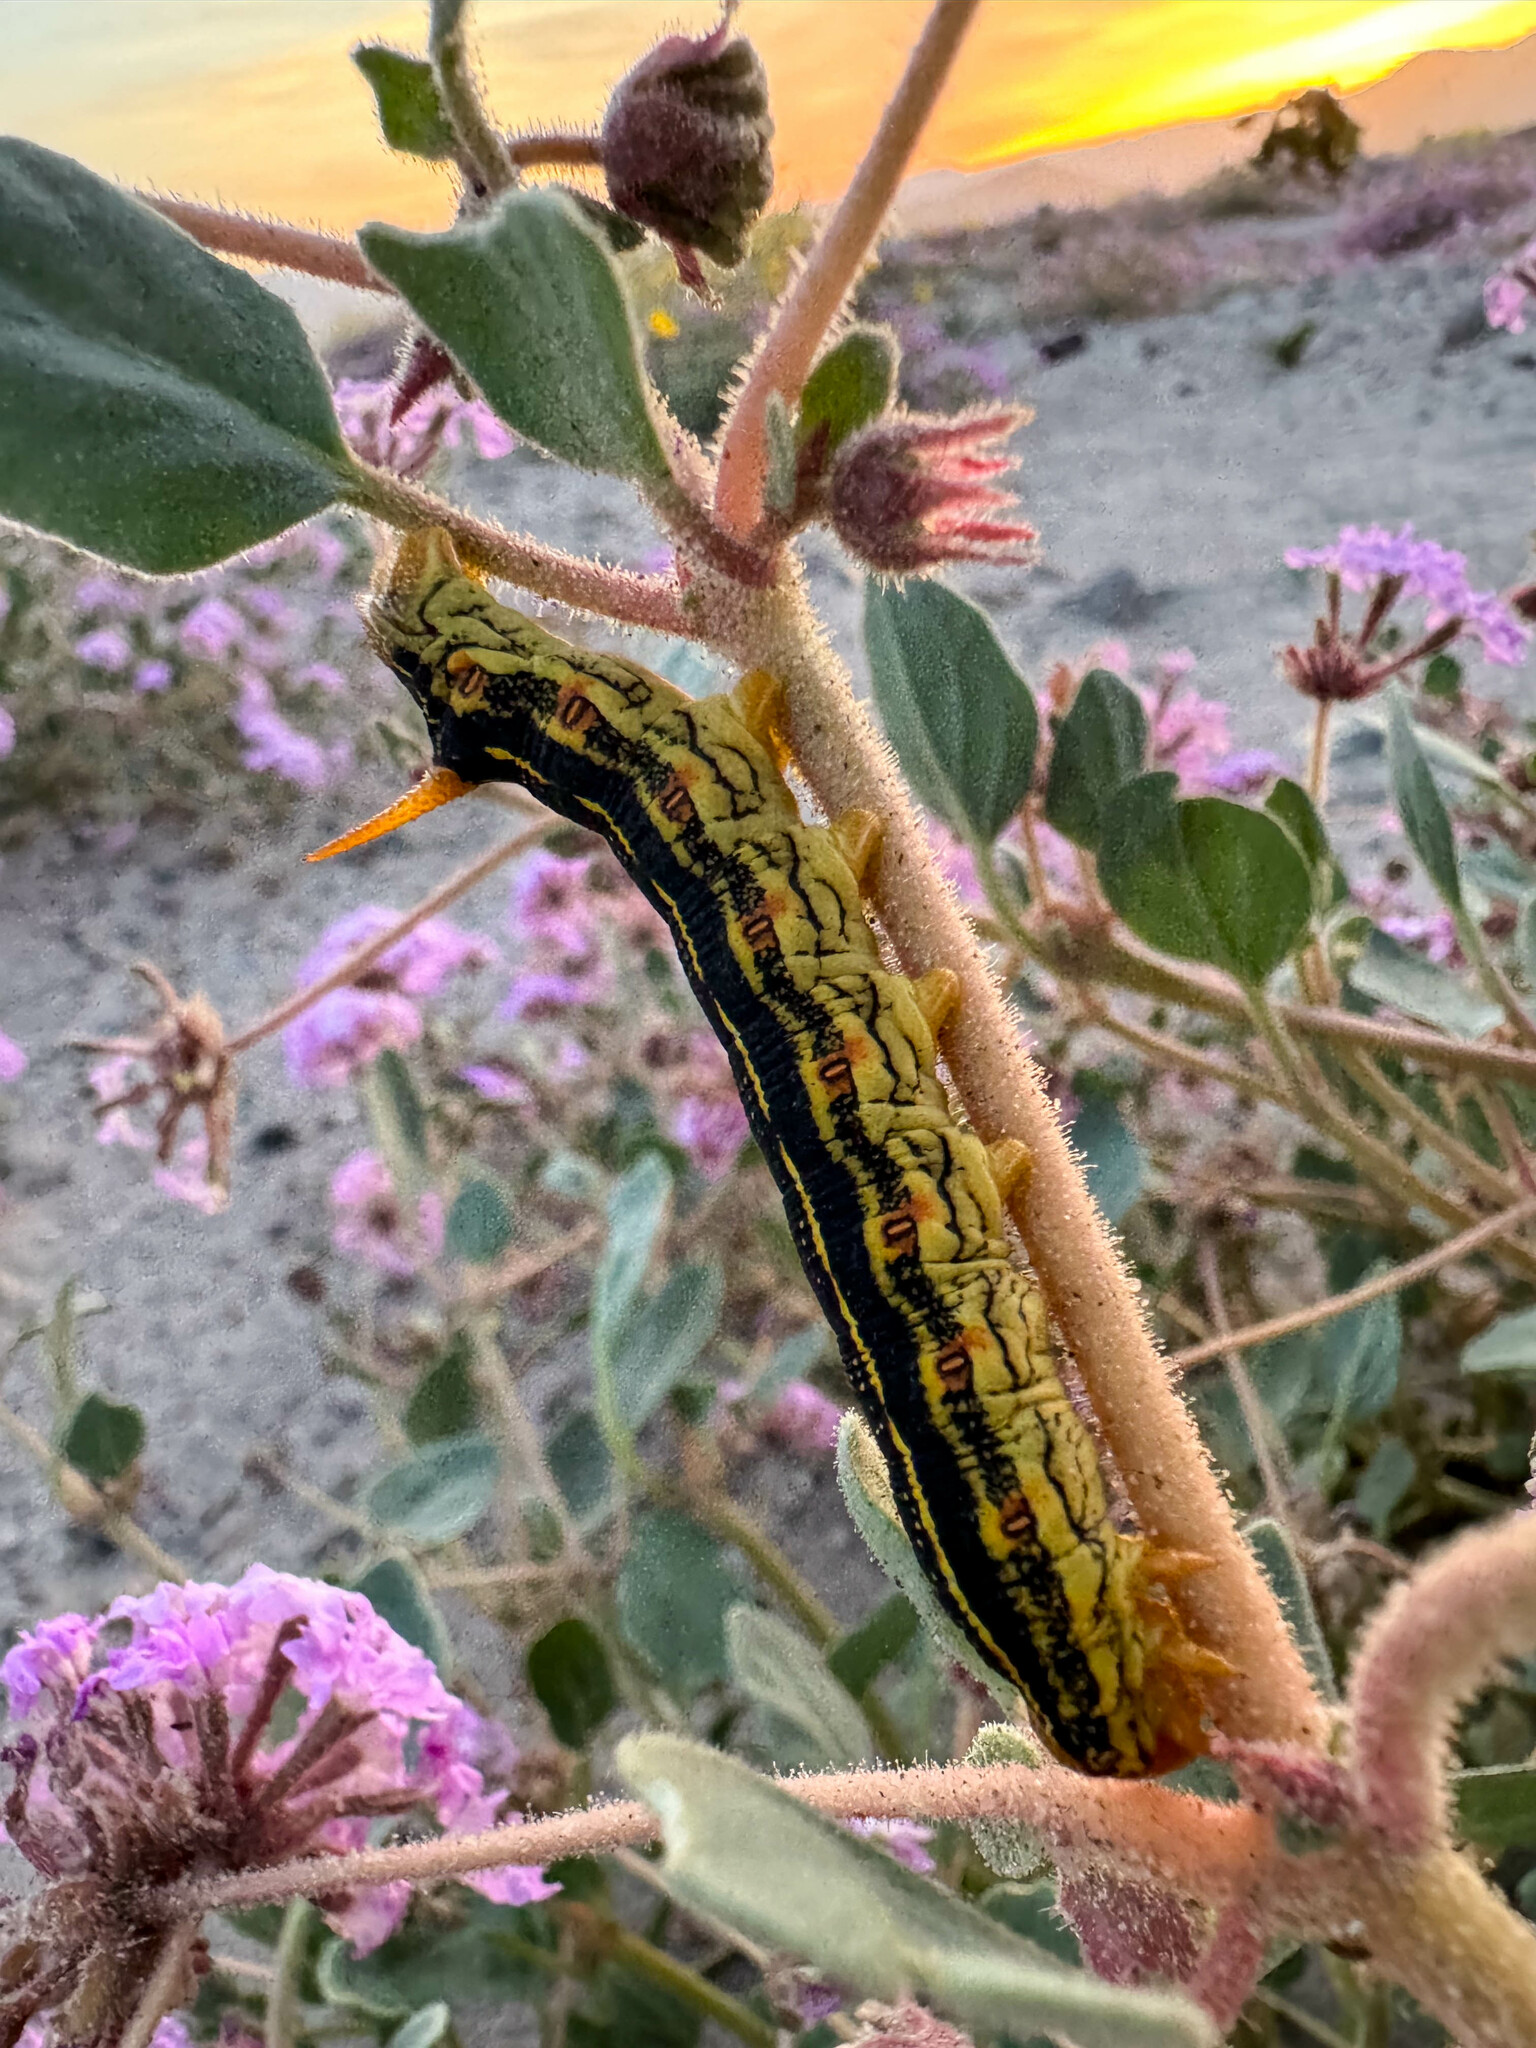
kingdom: Animalia
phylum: Arthropoda
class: Insecta
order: Lepidoptera
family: Sphingidae
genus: Hyles
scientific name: Hyles lineata
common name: White-lined sphinx
